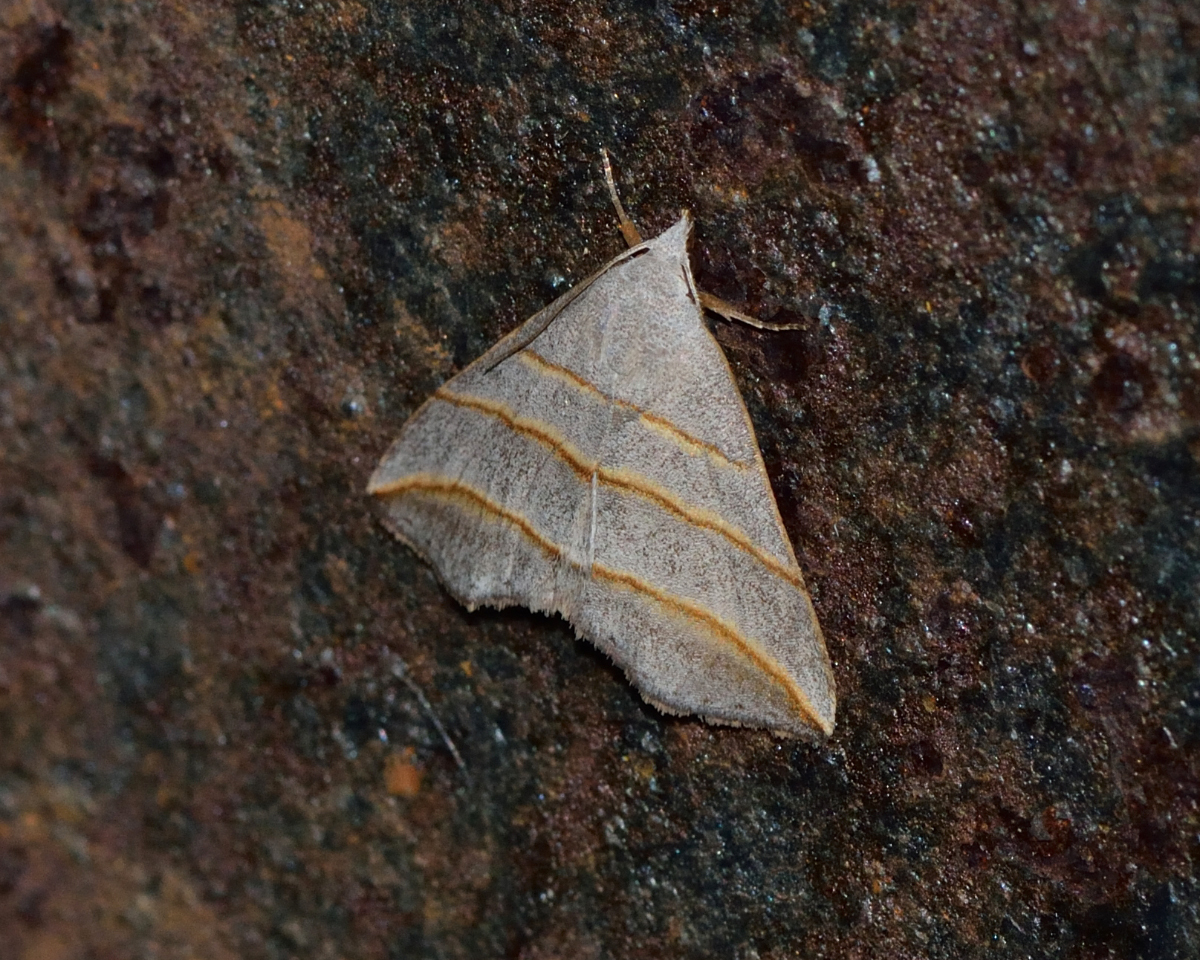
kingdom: Animalia
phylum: Arthropoda
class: Insecta
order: Lepidoptera
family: Erebidae
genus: Colobochyla
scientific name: Colobochyla salicalis
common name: Lesser belle
